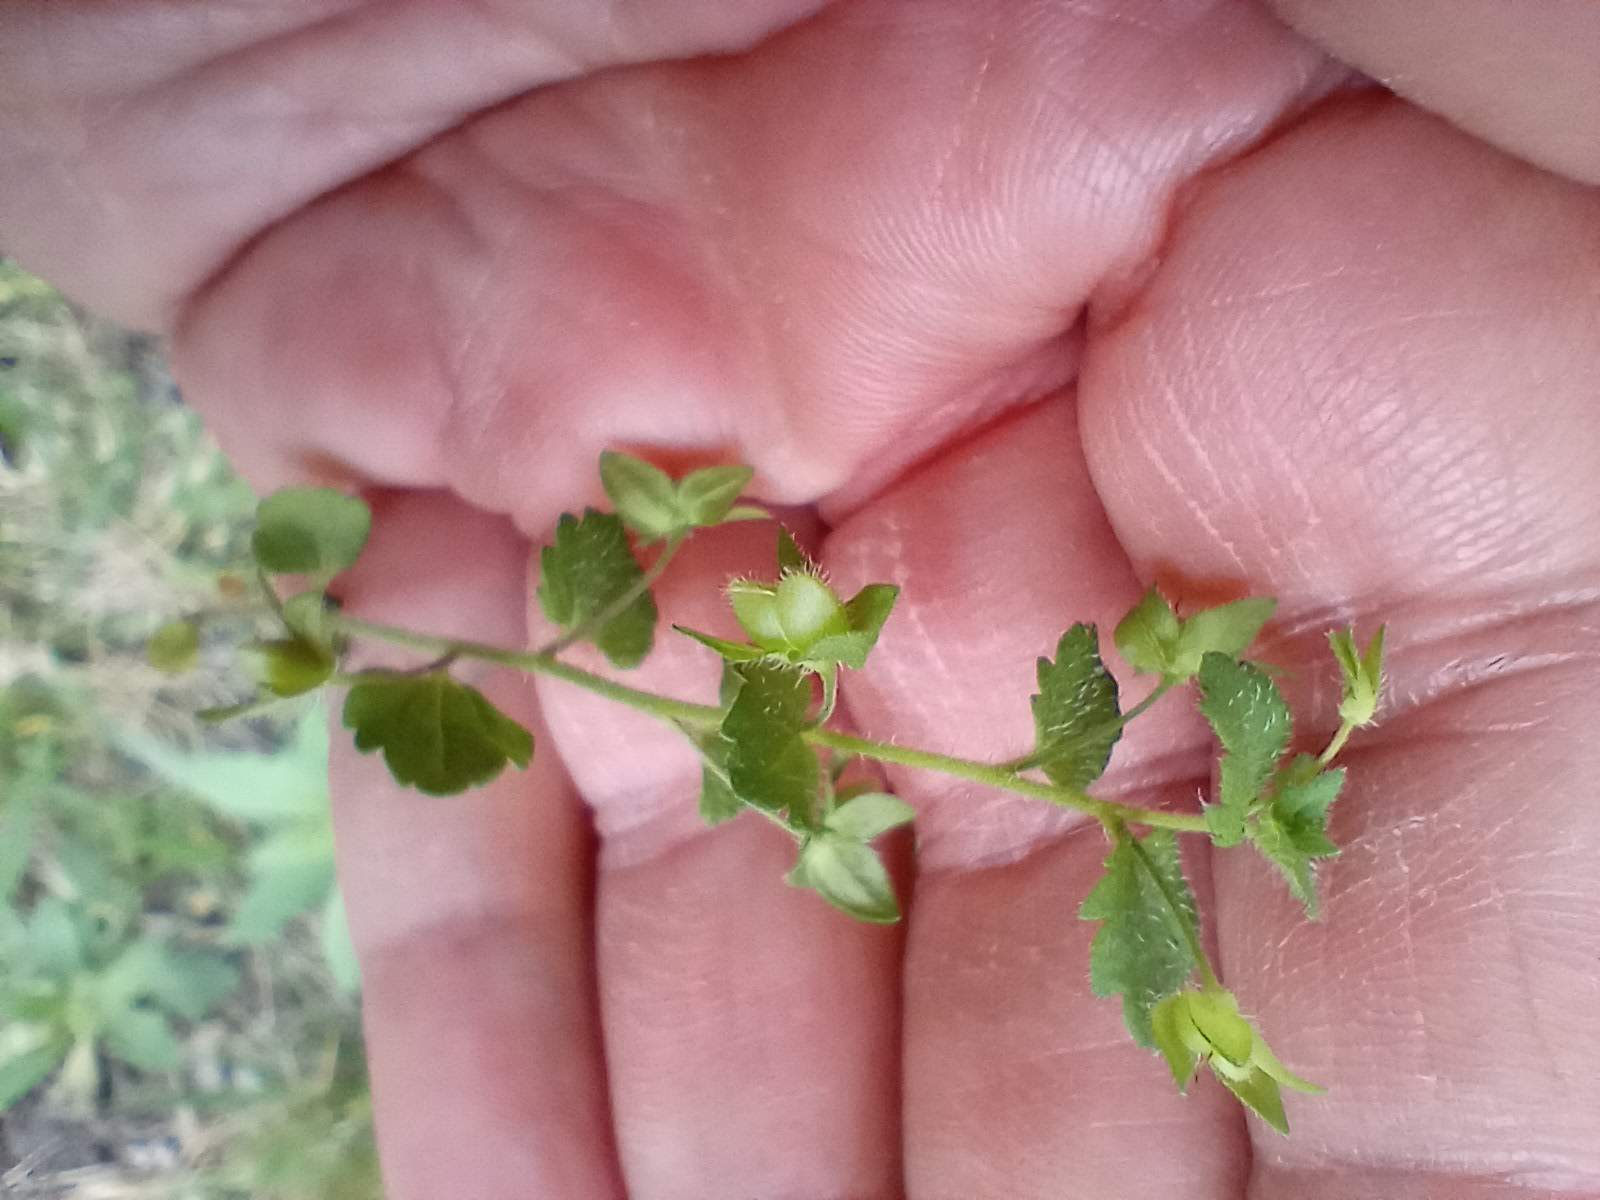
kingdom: Plantae
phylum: Tracheophyta
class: Magnoliopsida
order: Lamiales
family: Plantaginaceae
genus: Veronica
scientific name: Veronica persica
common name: Common field-speedwell
